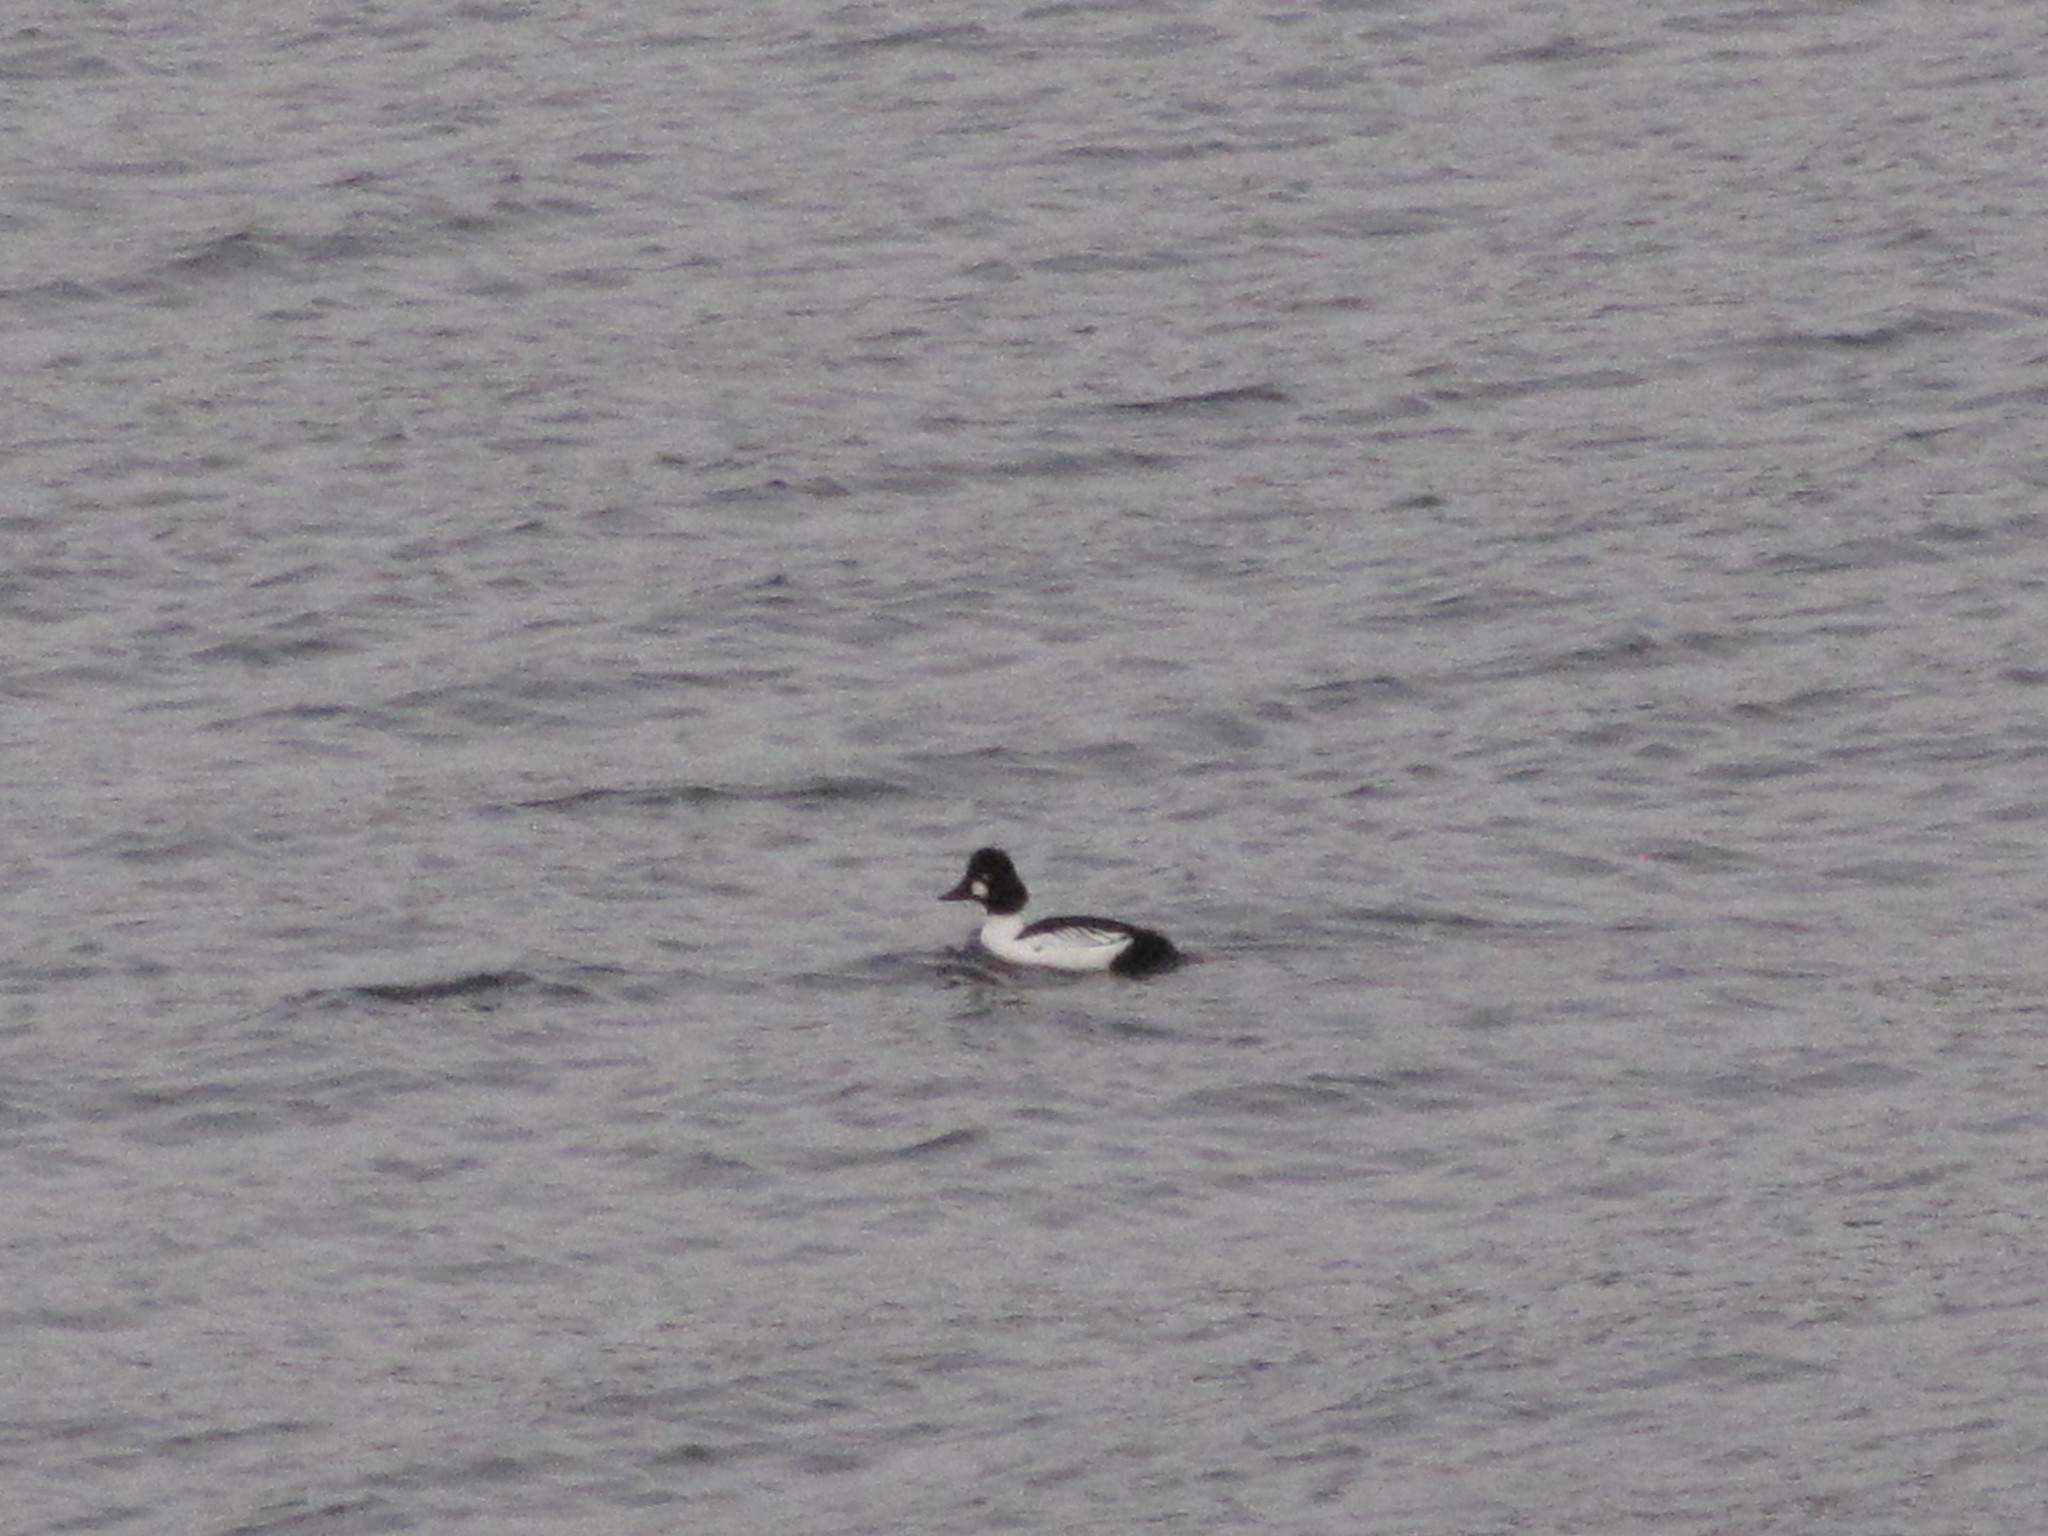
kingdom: Animalia
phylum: Chordata
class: Aves
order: Anseriformes
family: Anatidae
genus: Bucephala
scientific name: Bucephala clangula
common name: Common goldeneye
